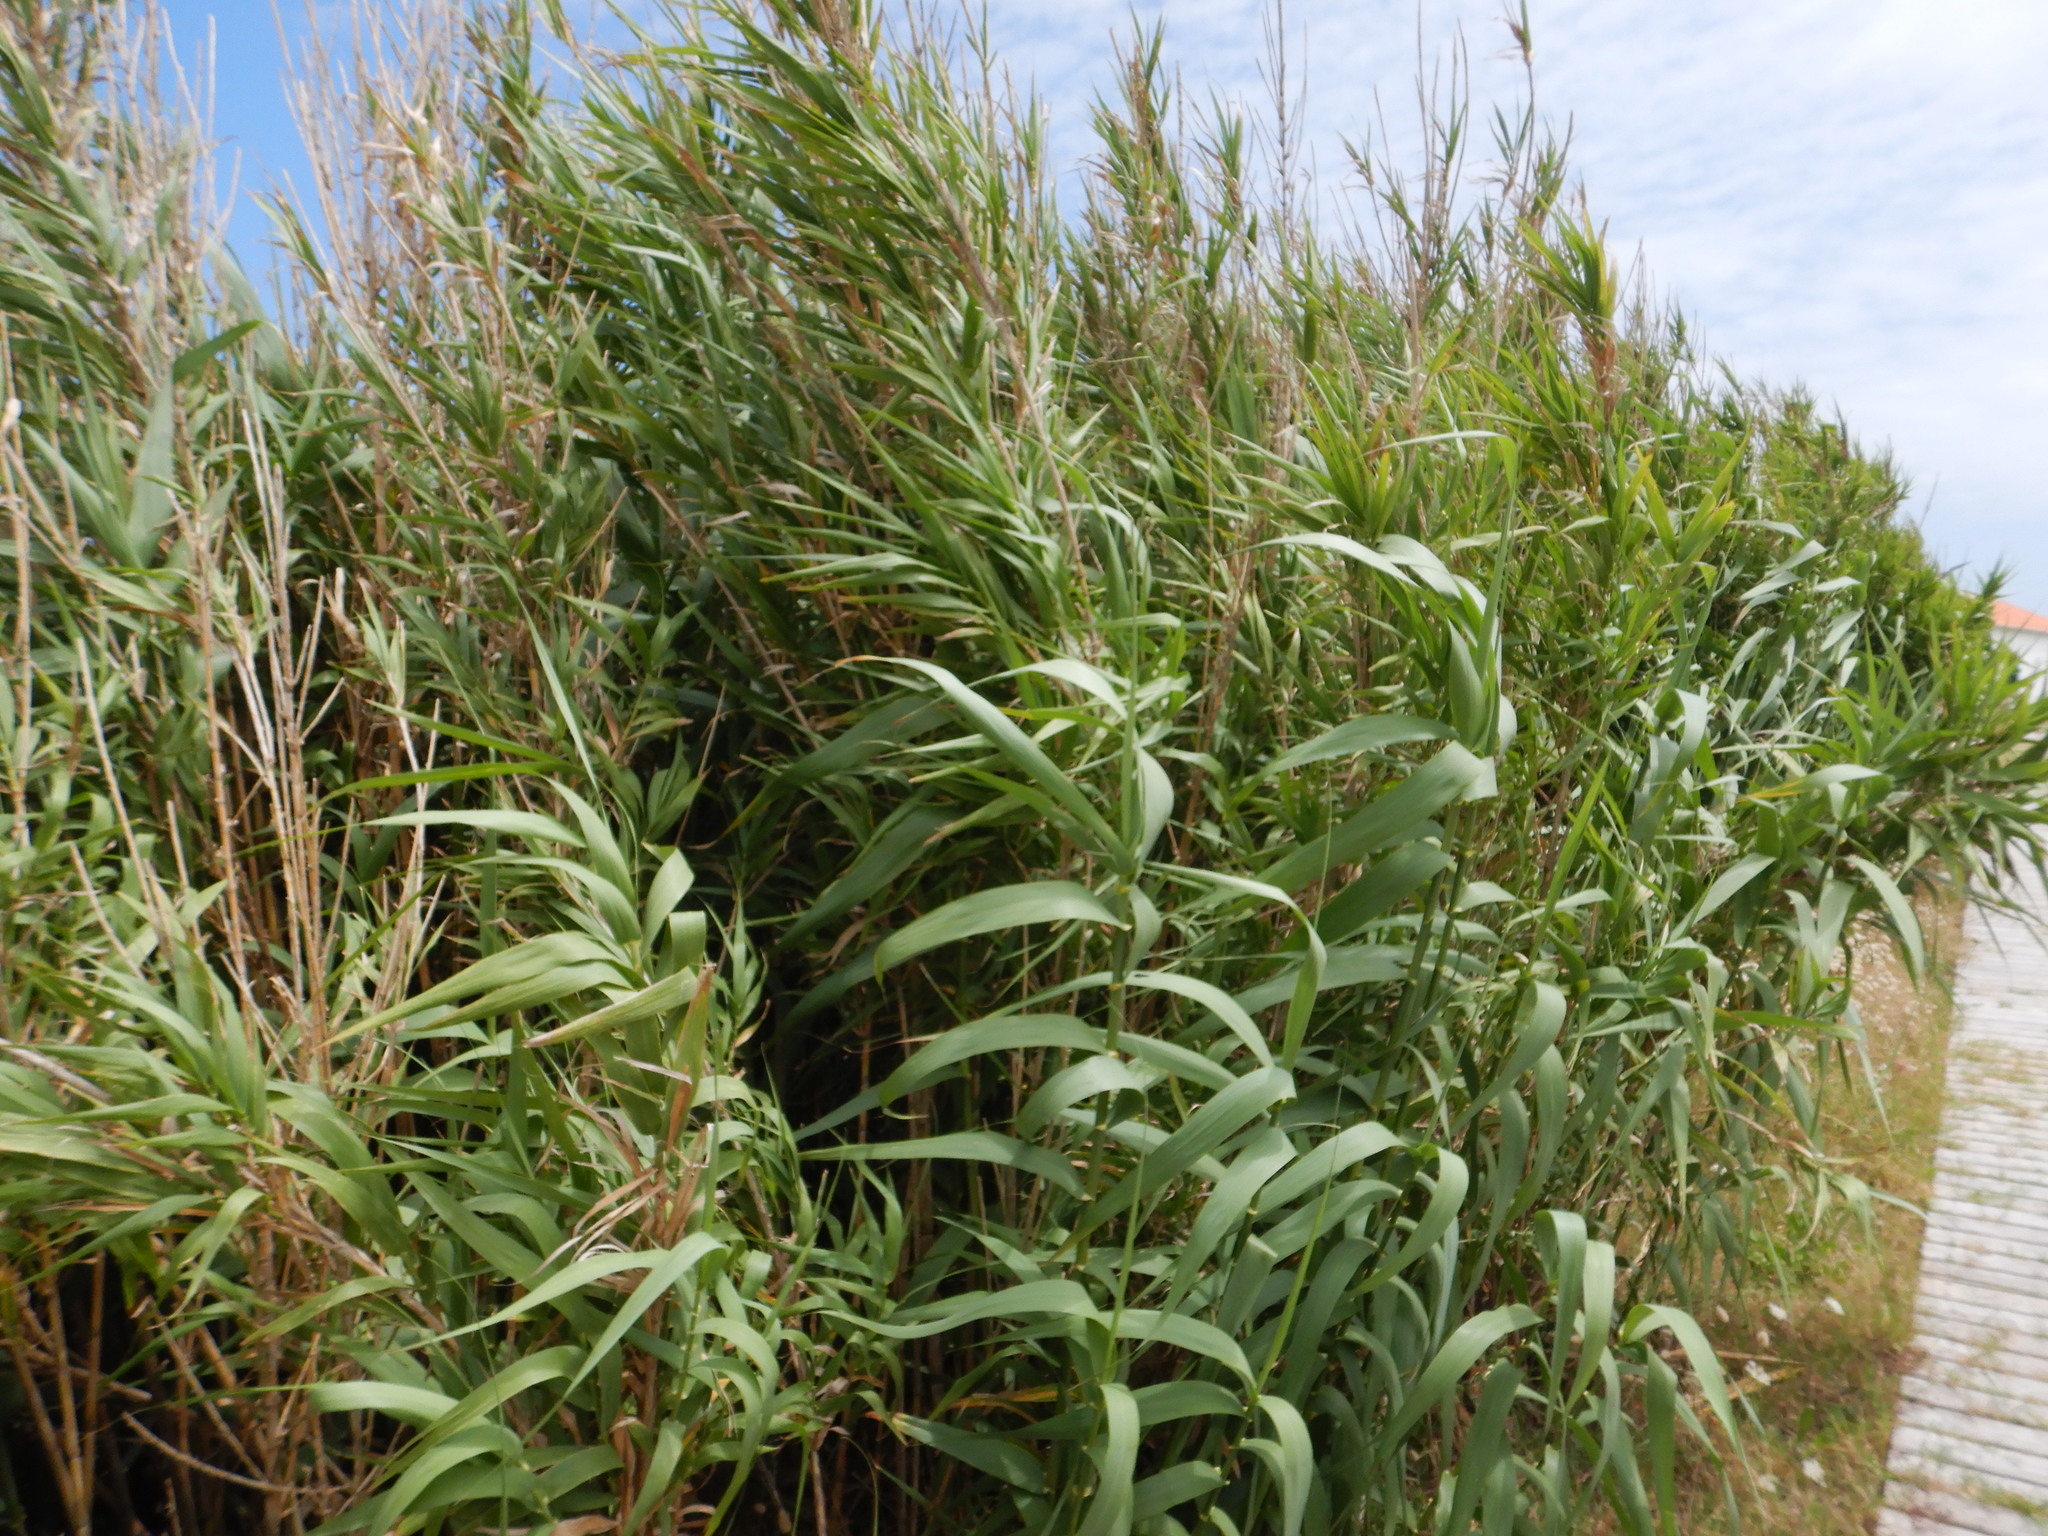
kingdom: Plantae
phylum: Tracheophyta
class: Liliopsida
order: Poales
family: Poaceae
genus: Arundo
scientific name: Arundo donax
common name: Giant reed
